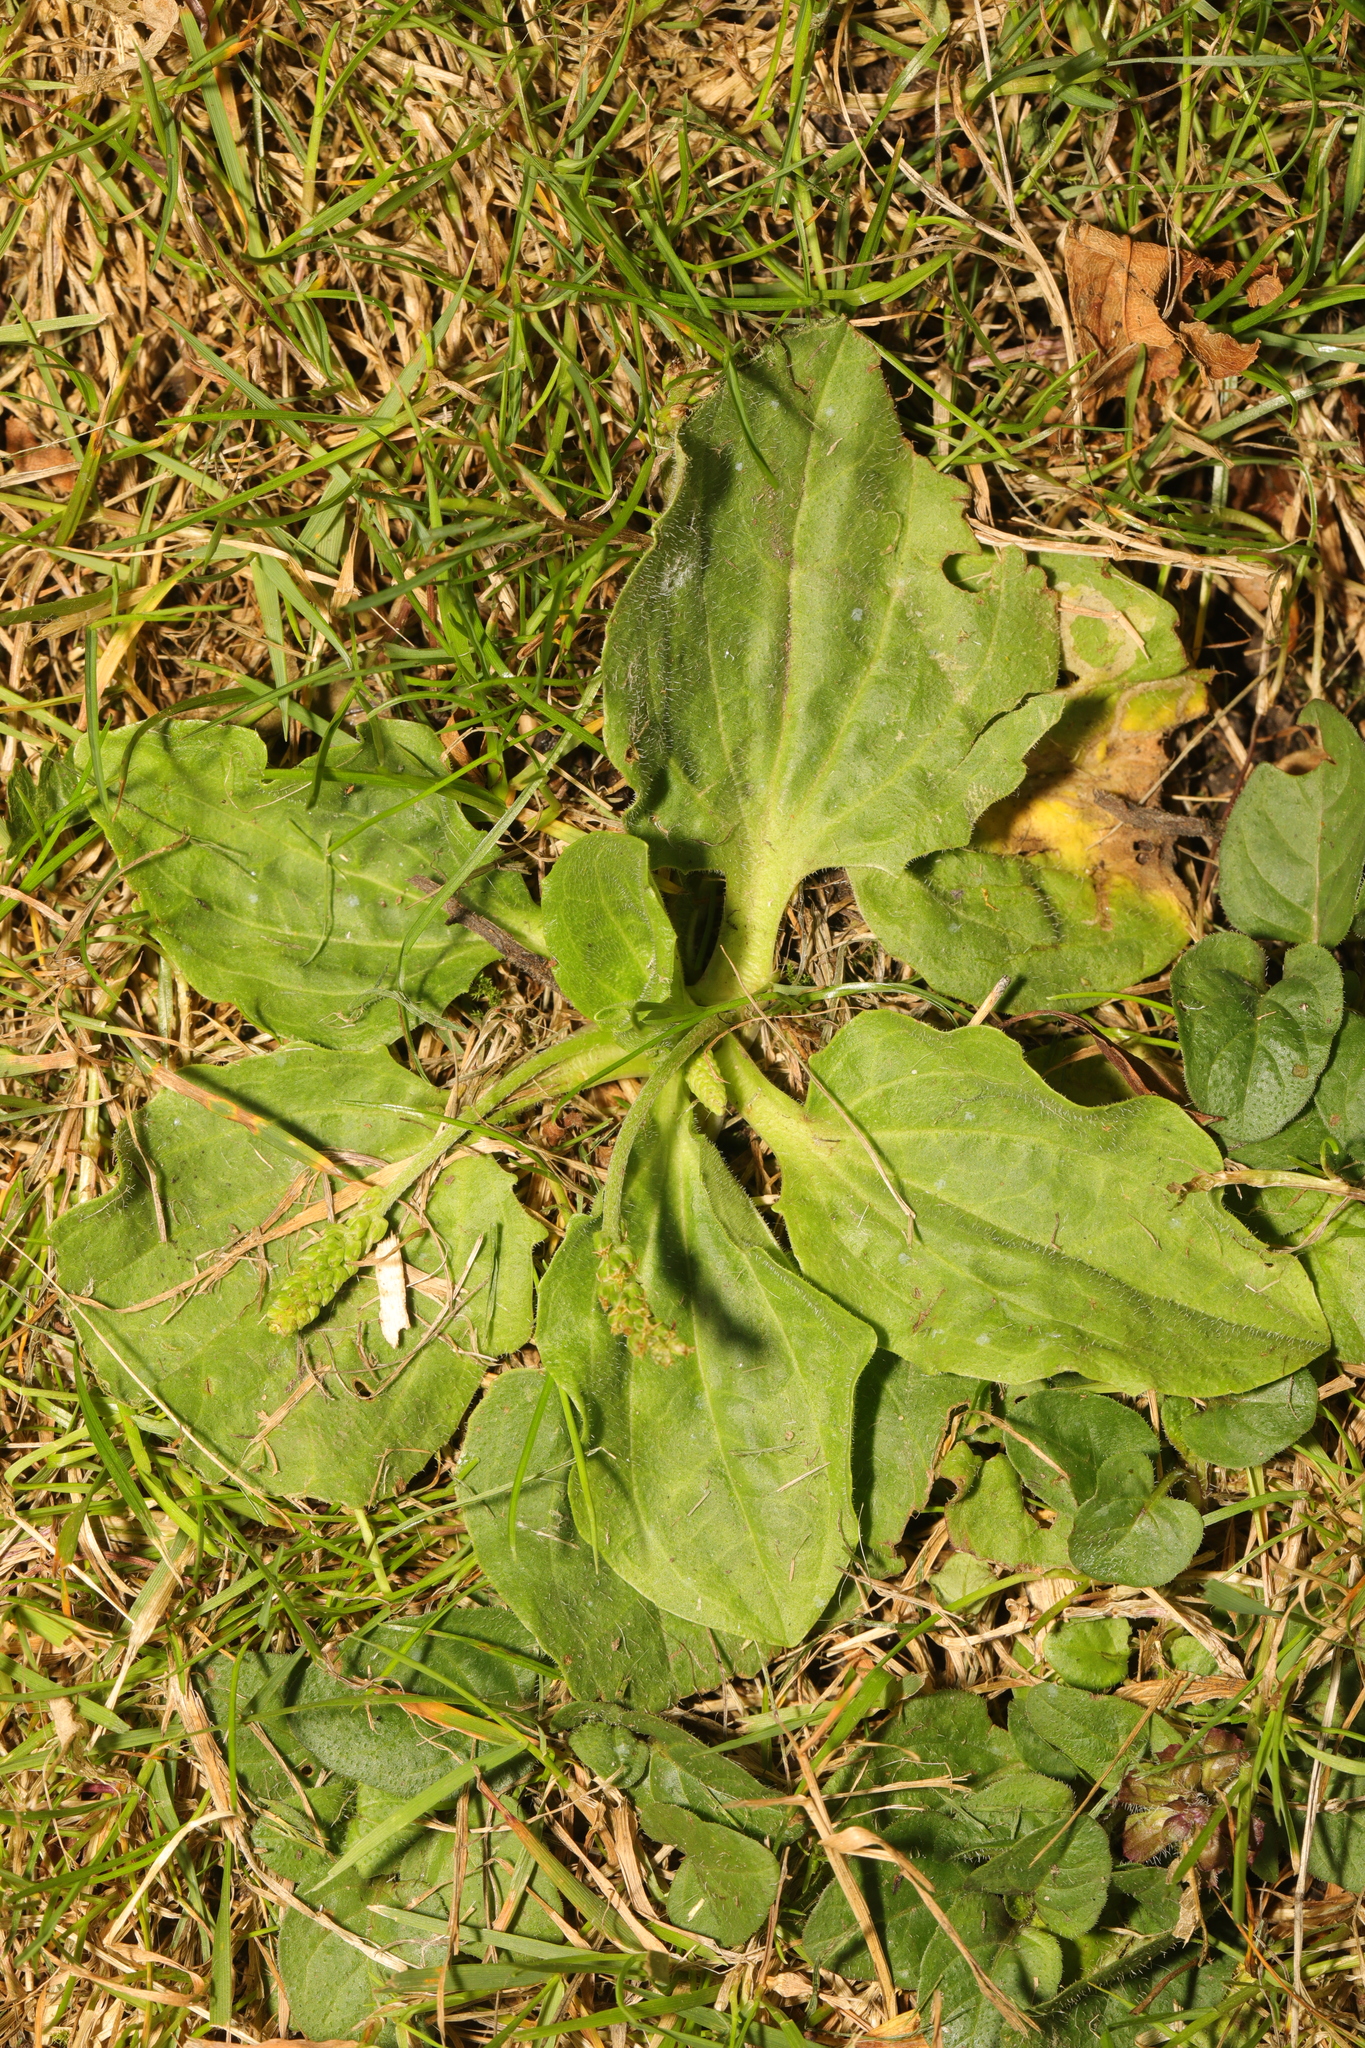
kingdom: Plantae
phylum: Tracheophyta
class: Magnoliopsida
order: Lamiales
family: Plantaginaceae
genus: Plantago
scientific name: Plantago major
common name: Common plantain
